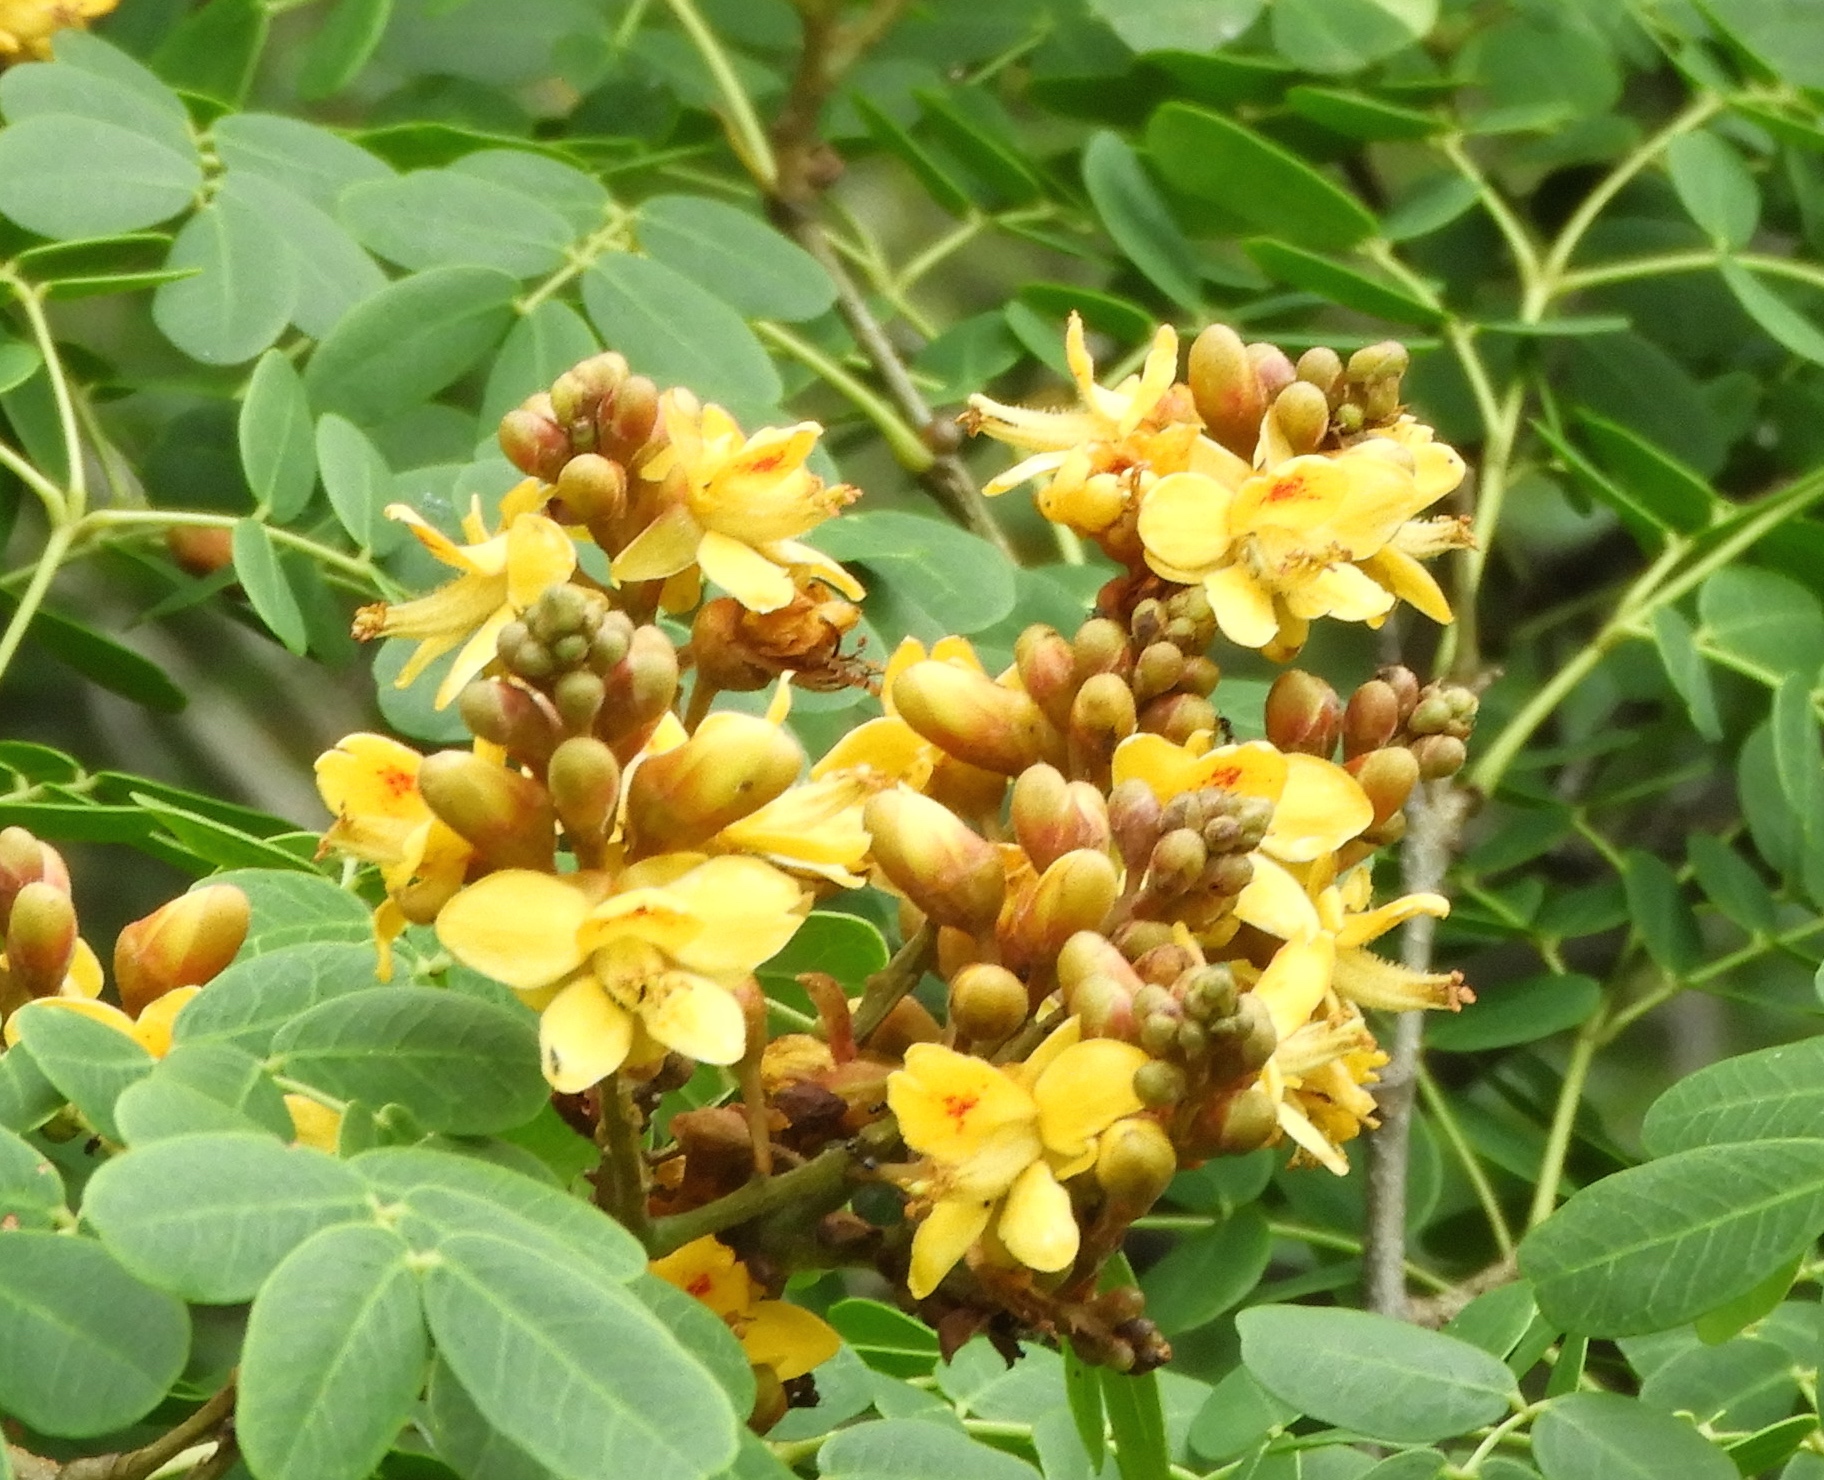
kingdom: Plantae
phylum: Tracheophyta
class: Magnoliopsida
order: Fabales
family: Fabaceae
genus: Libidibia
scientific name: Libidibia sclerocarpa
